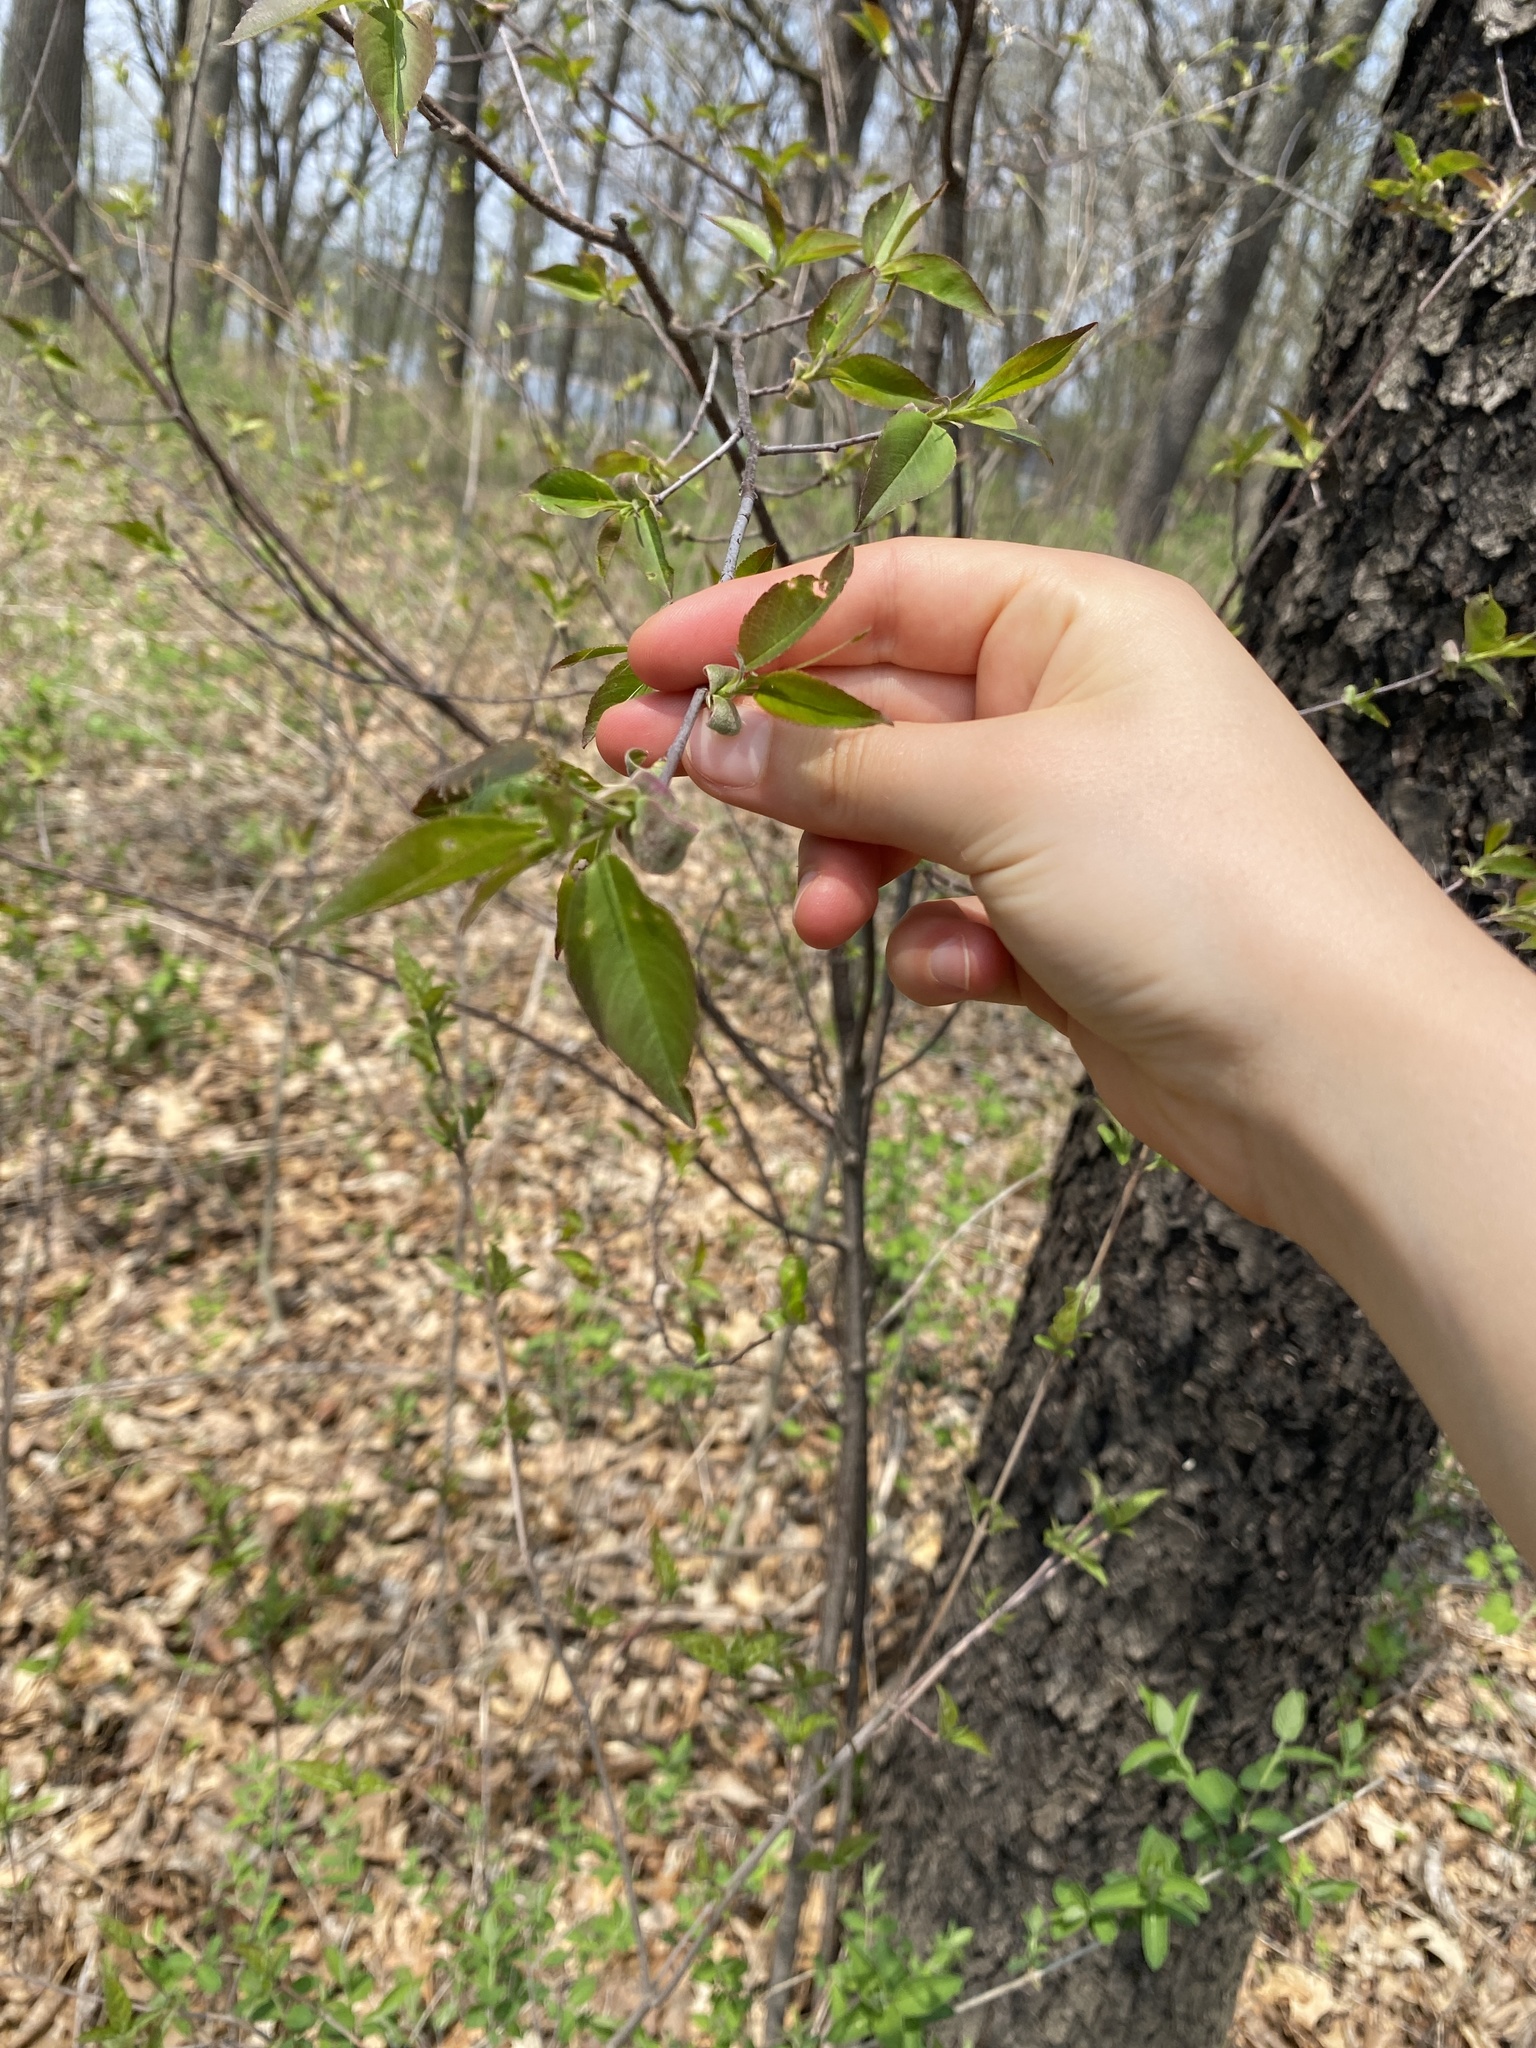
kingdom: Plantae
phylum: Tracheophyta
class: Magnoliopsida
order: Rosales
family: Rosaceae
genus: Prunus
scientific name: Prunus serotina
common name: Black cherry
